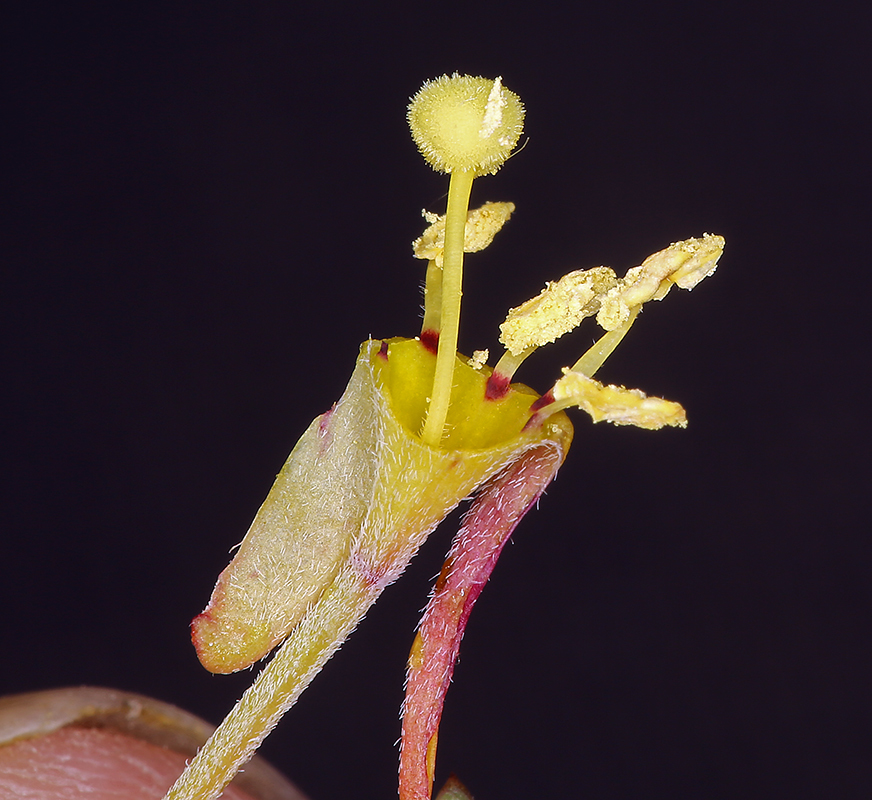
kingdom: Plantae
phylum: Tracheophyta
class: Magnoliopsida
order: Myrtales
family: Onagraceae
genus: Camissonia
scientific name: Camissonia campestris
